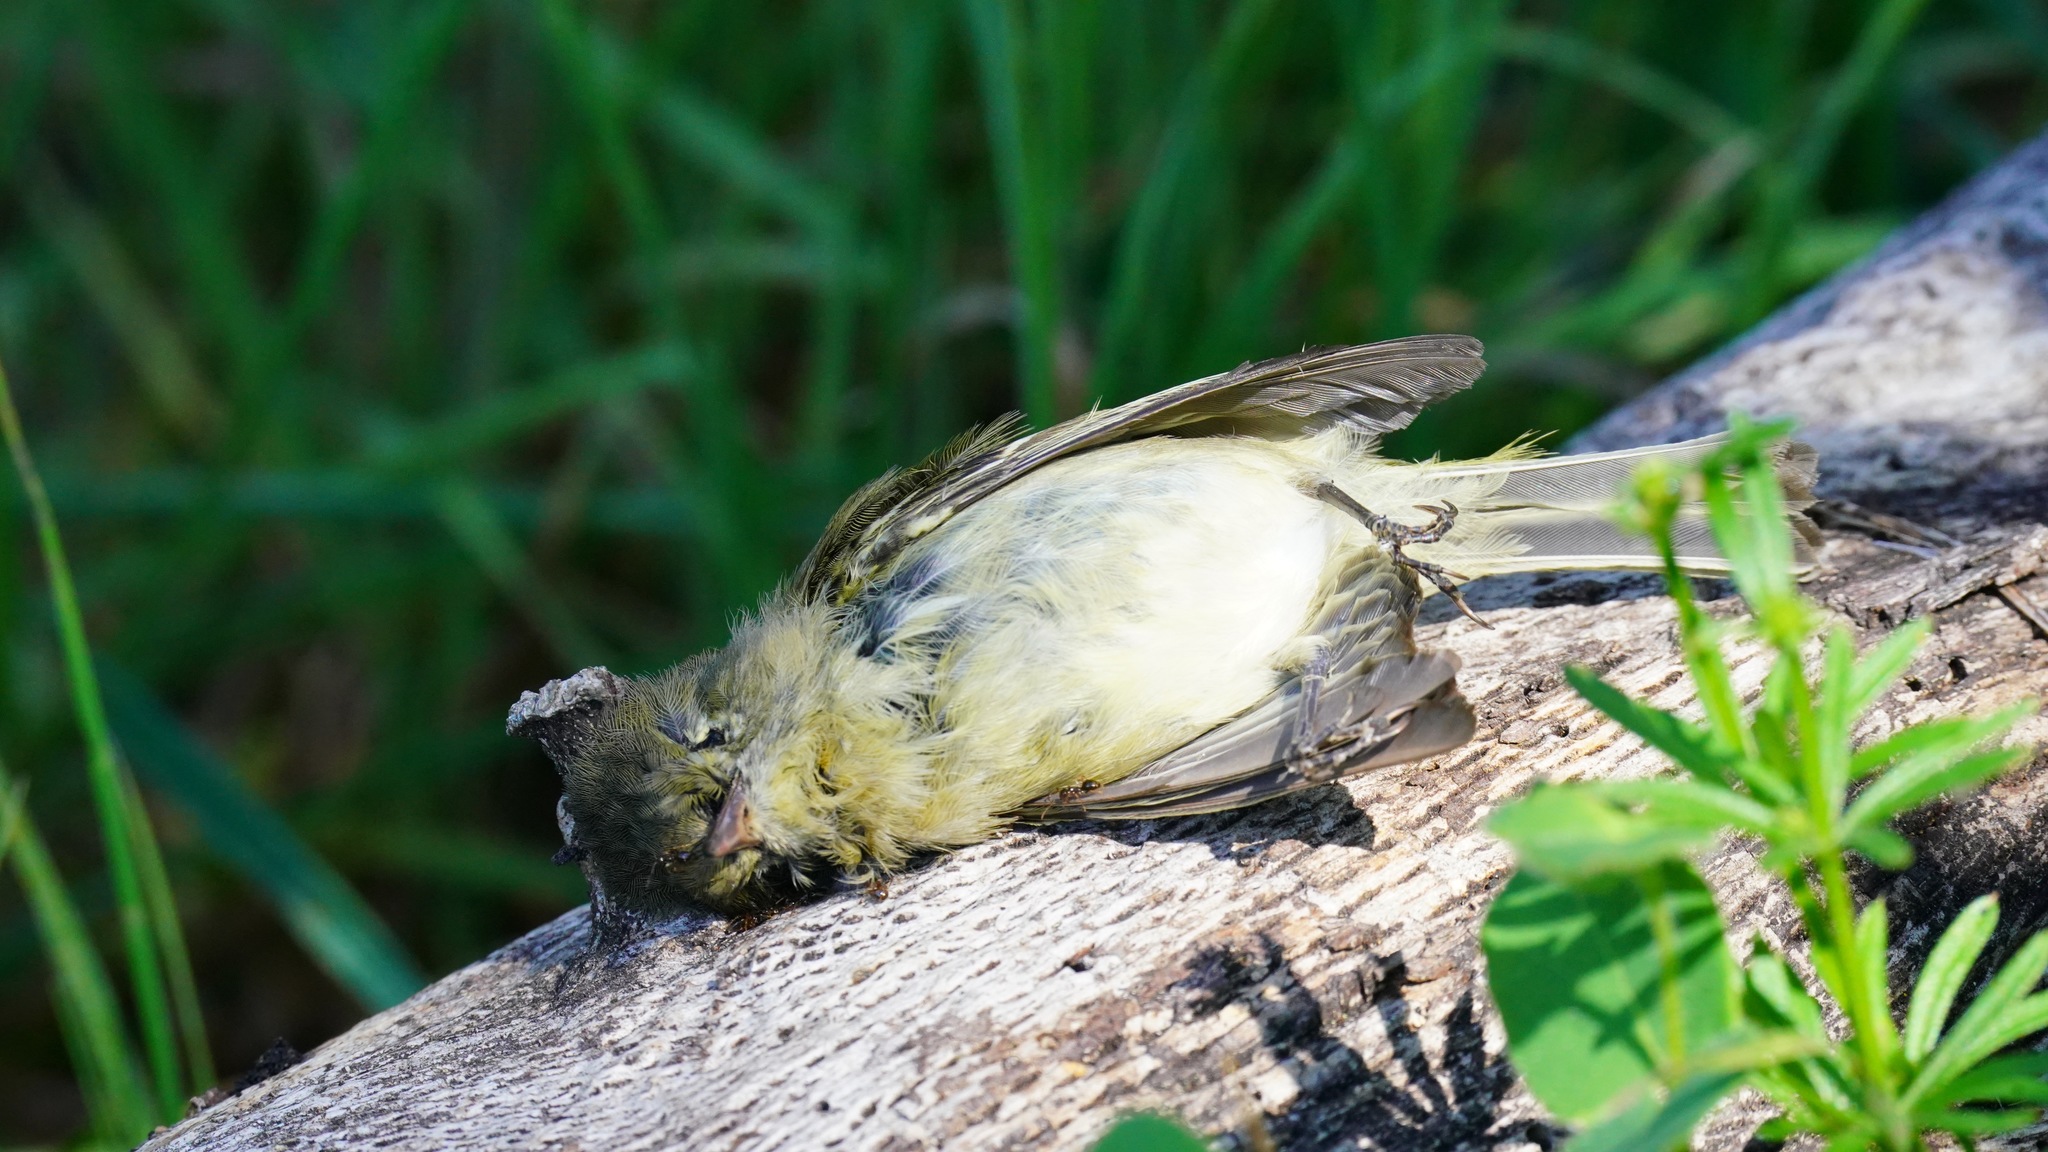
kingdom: Animalia
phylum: Chordata
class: Aves
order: Passeriformes
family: Tyrannidae
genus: Empidonax
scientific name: Empidonax difficilis
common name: Pacific-slope flycatcher
